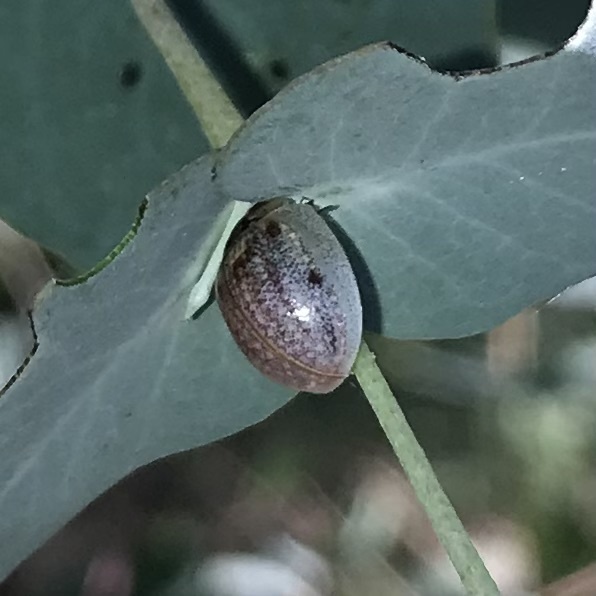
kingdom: Animalia
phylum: Arthropoda
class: Insecta
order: Coleoptera
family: Chrysomelidae
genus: Paropsisterna
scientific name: Paropsisterna m-fuscum
